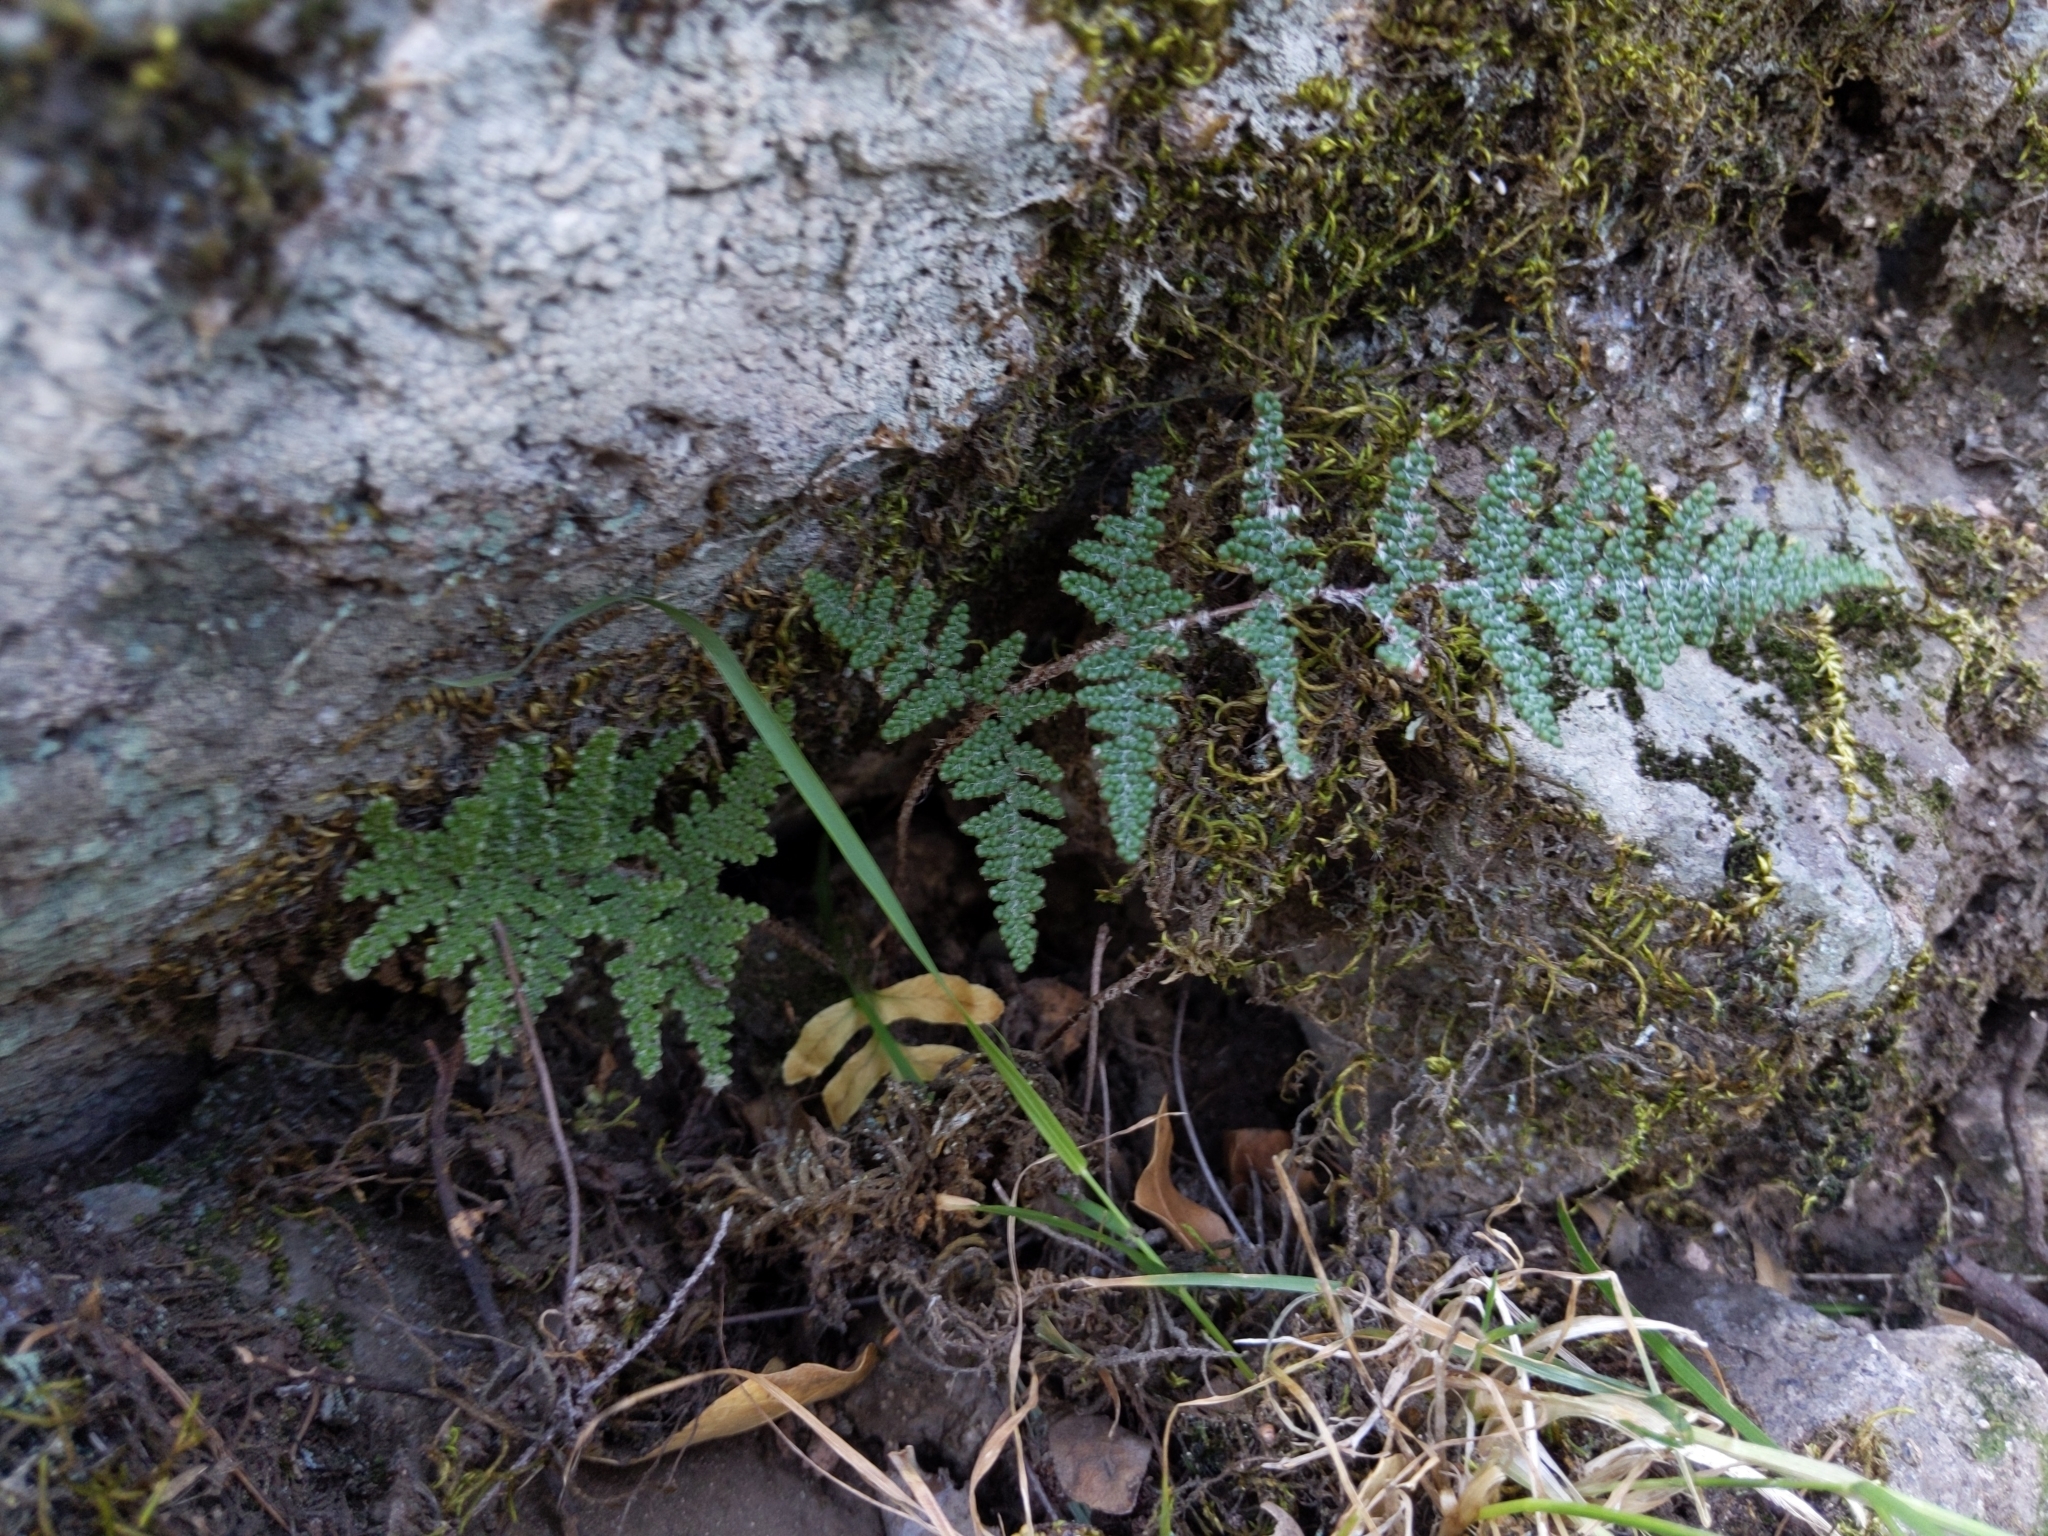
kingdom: Plantae
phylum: Tracheophyta
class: Polypodiopsida
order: Polypodiales
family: Pteridaceae
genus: Myriopteris
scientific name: Myriopteris covillei
